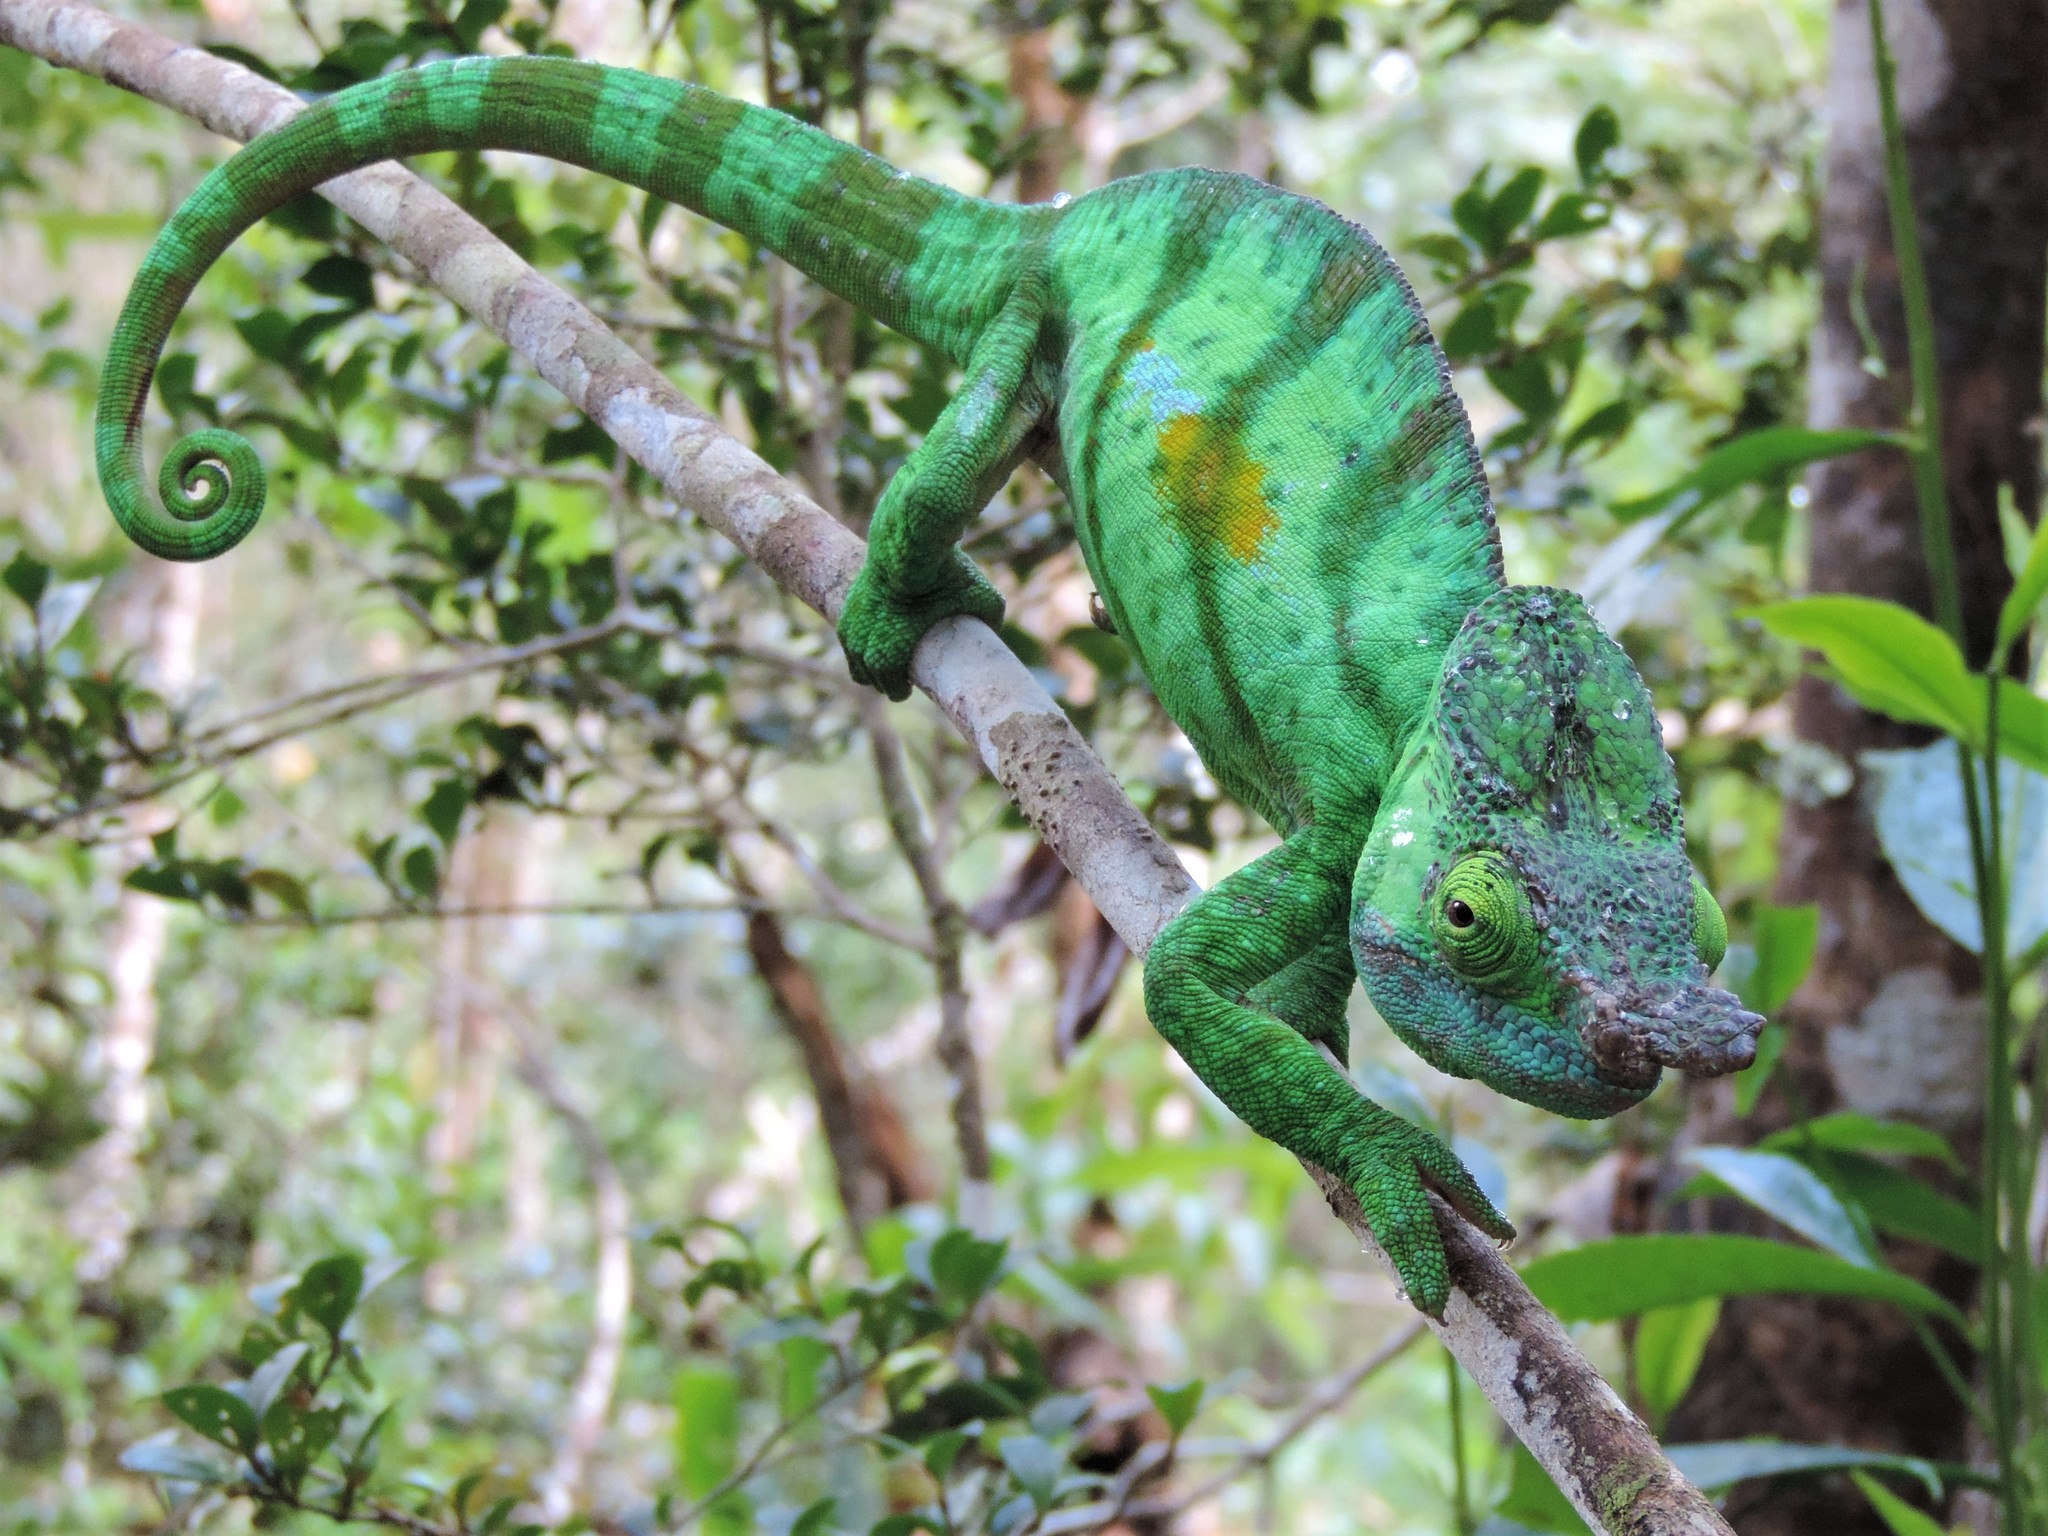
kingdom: Animalia
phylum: Chordata
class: Squamata
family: Chamaeleonidae
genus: Calumma
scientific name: Calumma parsonii
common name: Parson's chameleon
